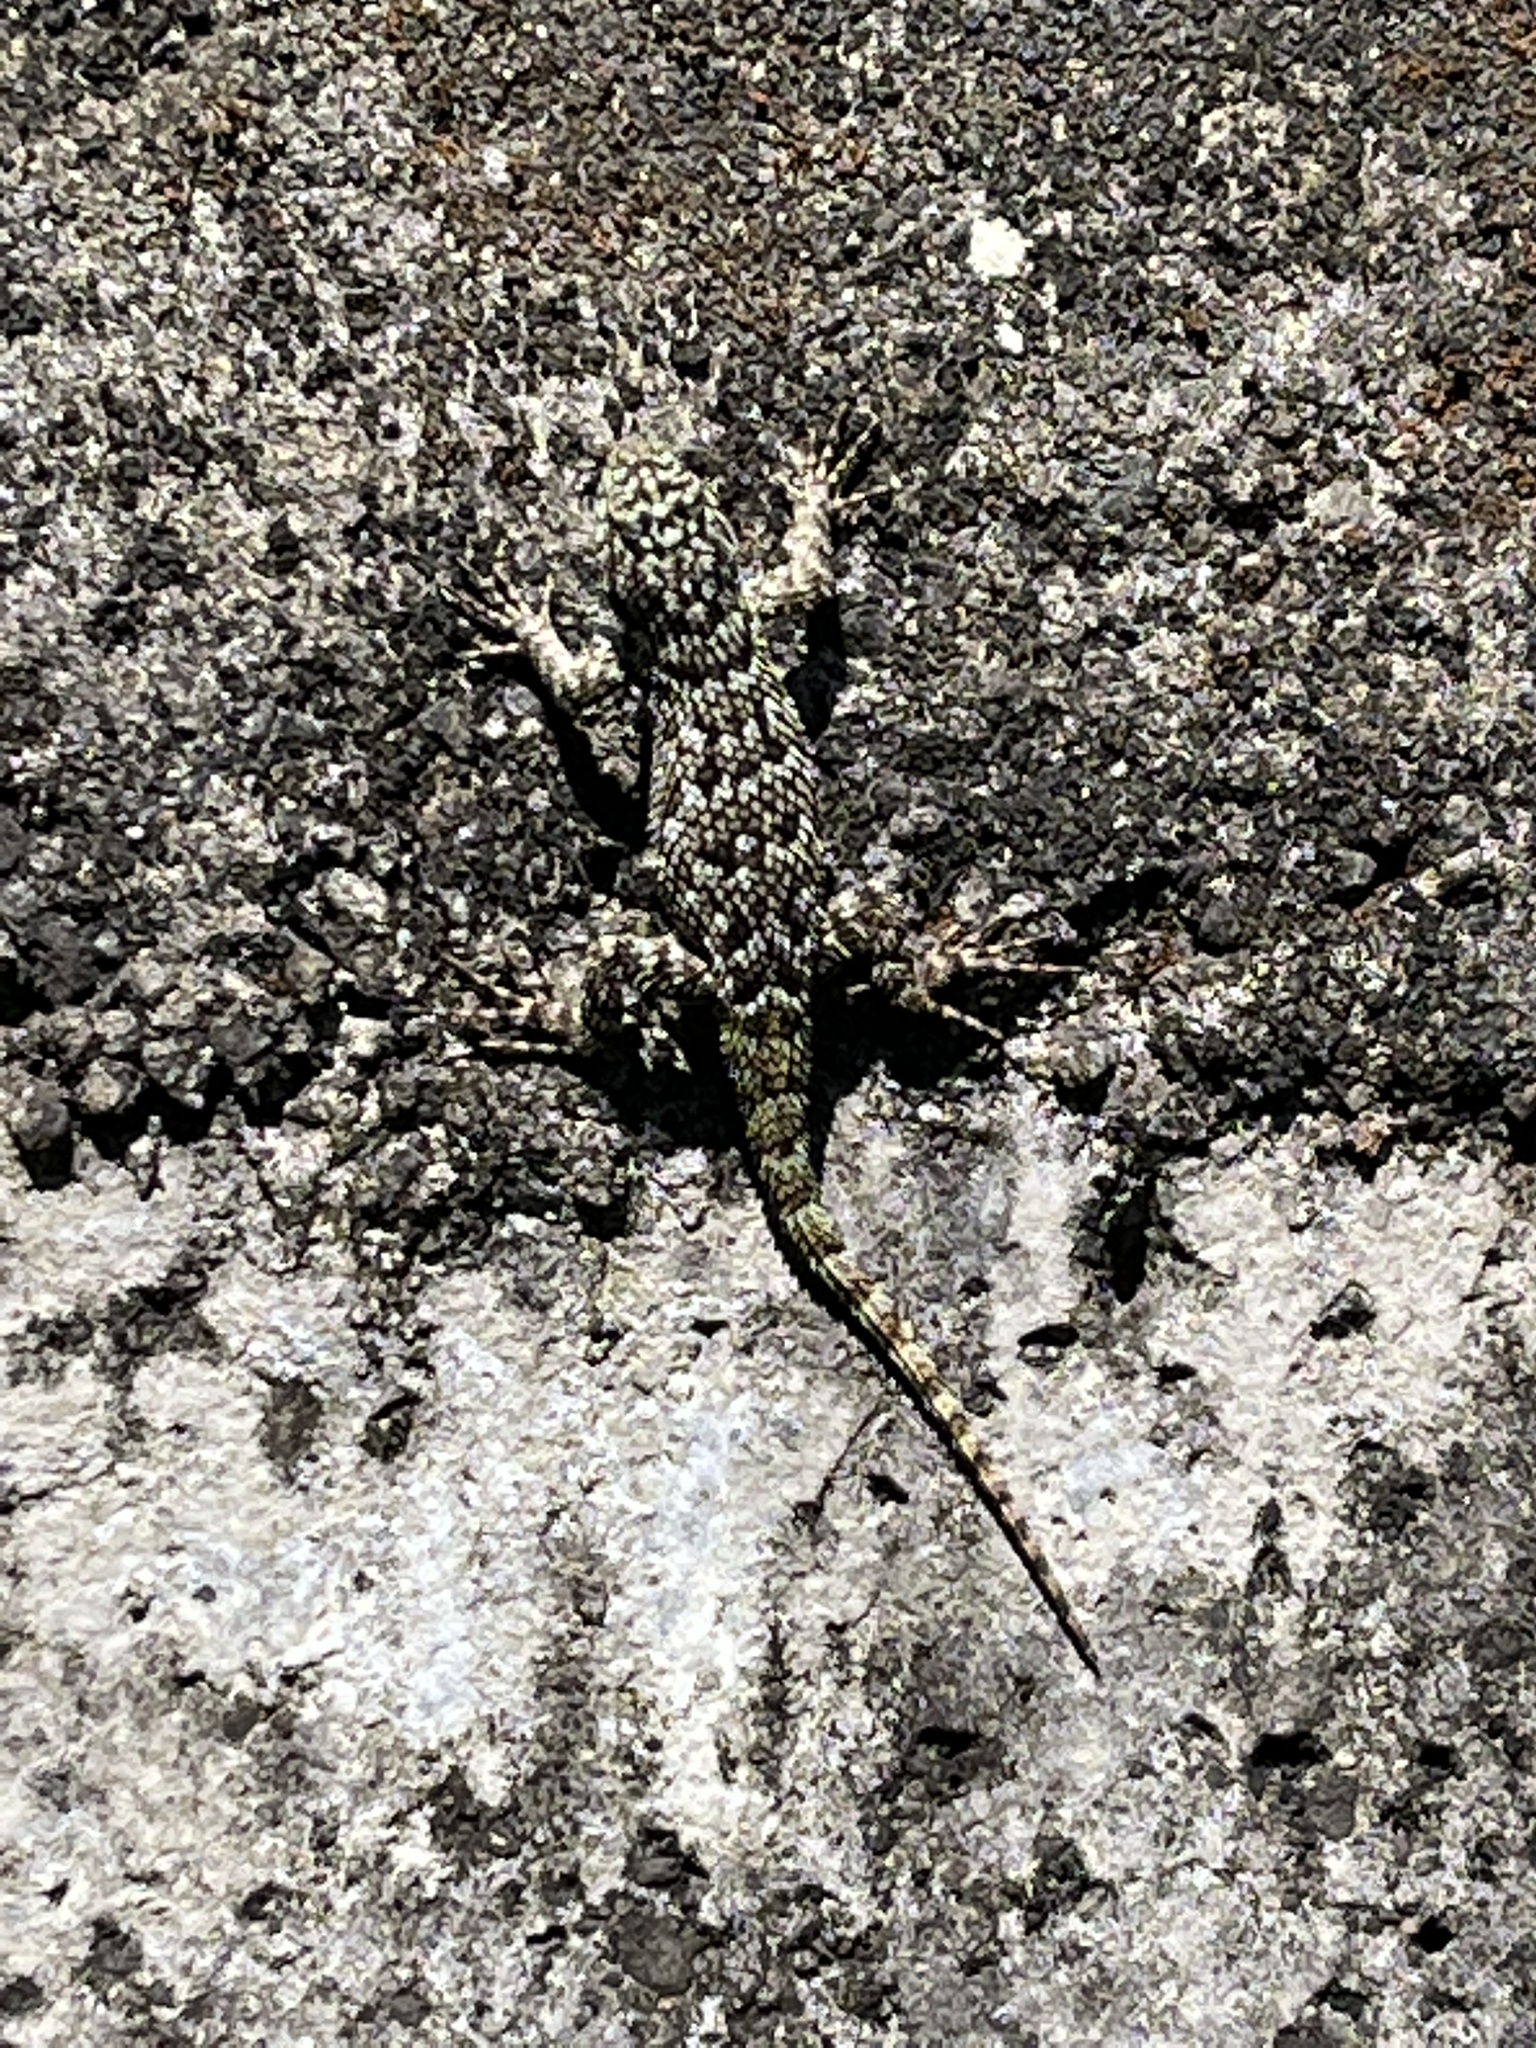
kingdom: Animalia
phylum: Chordata
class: Squamata
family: Phrynosomatidae
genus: Sceloporus
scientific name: Sceloporus malachiticus
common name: Green spiny lizard
